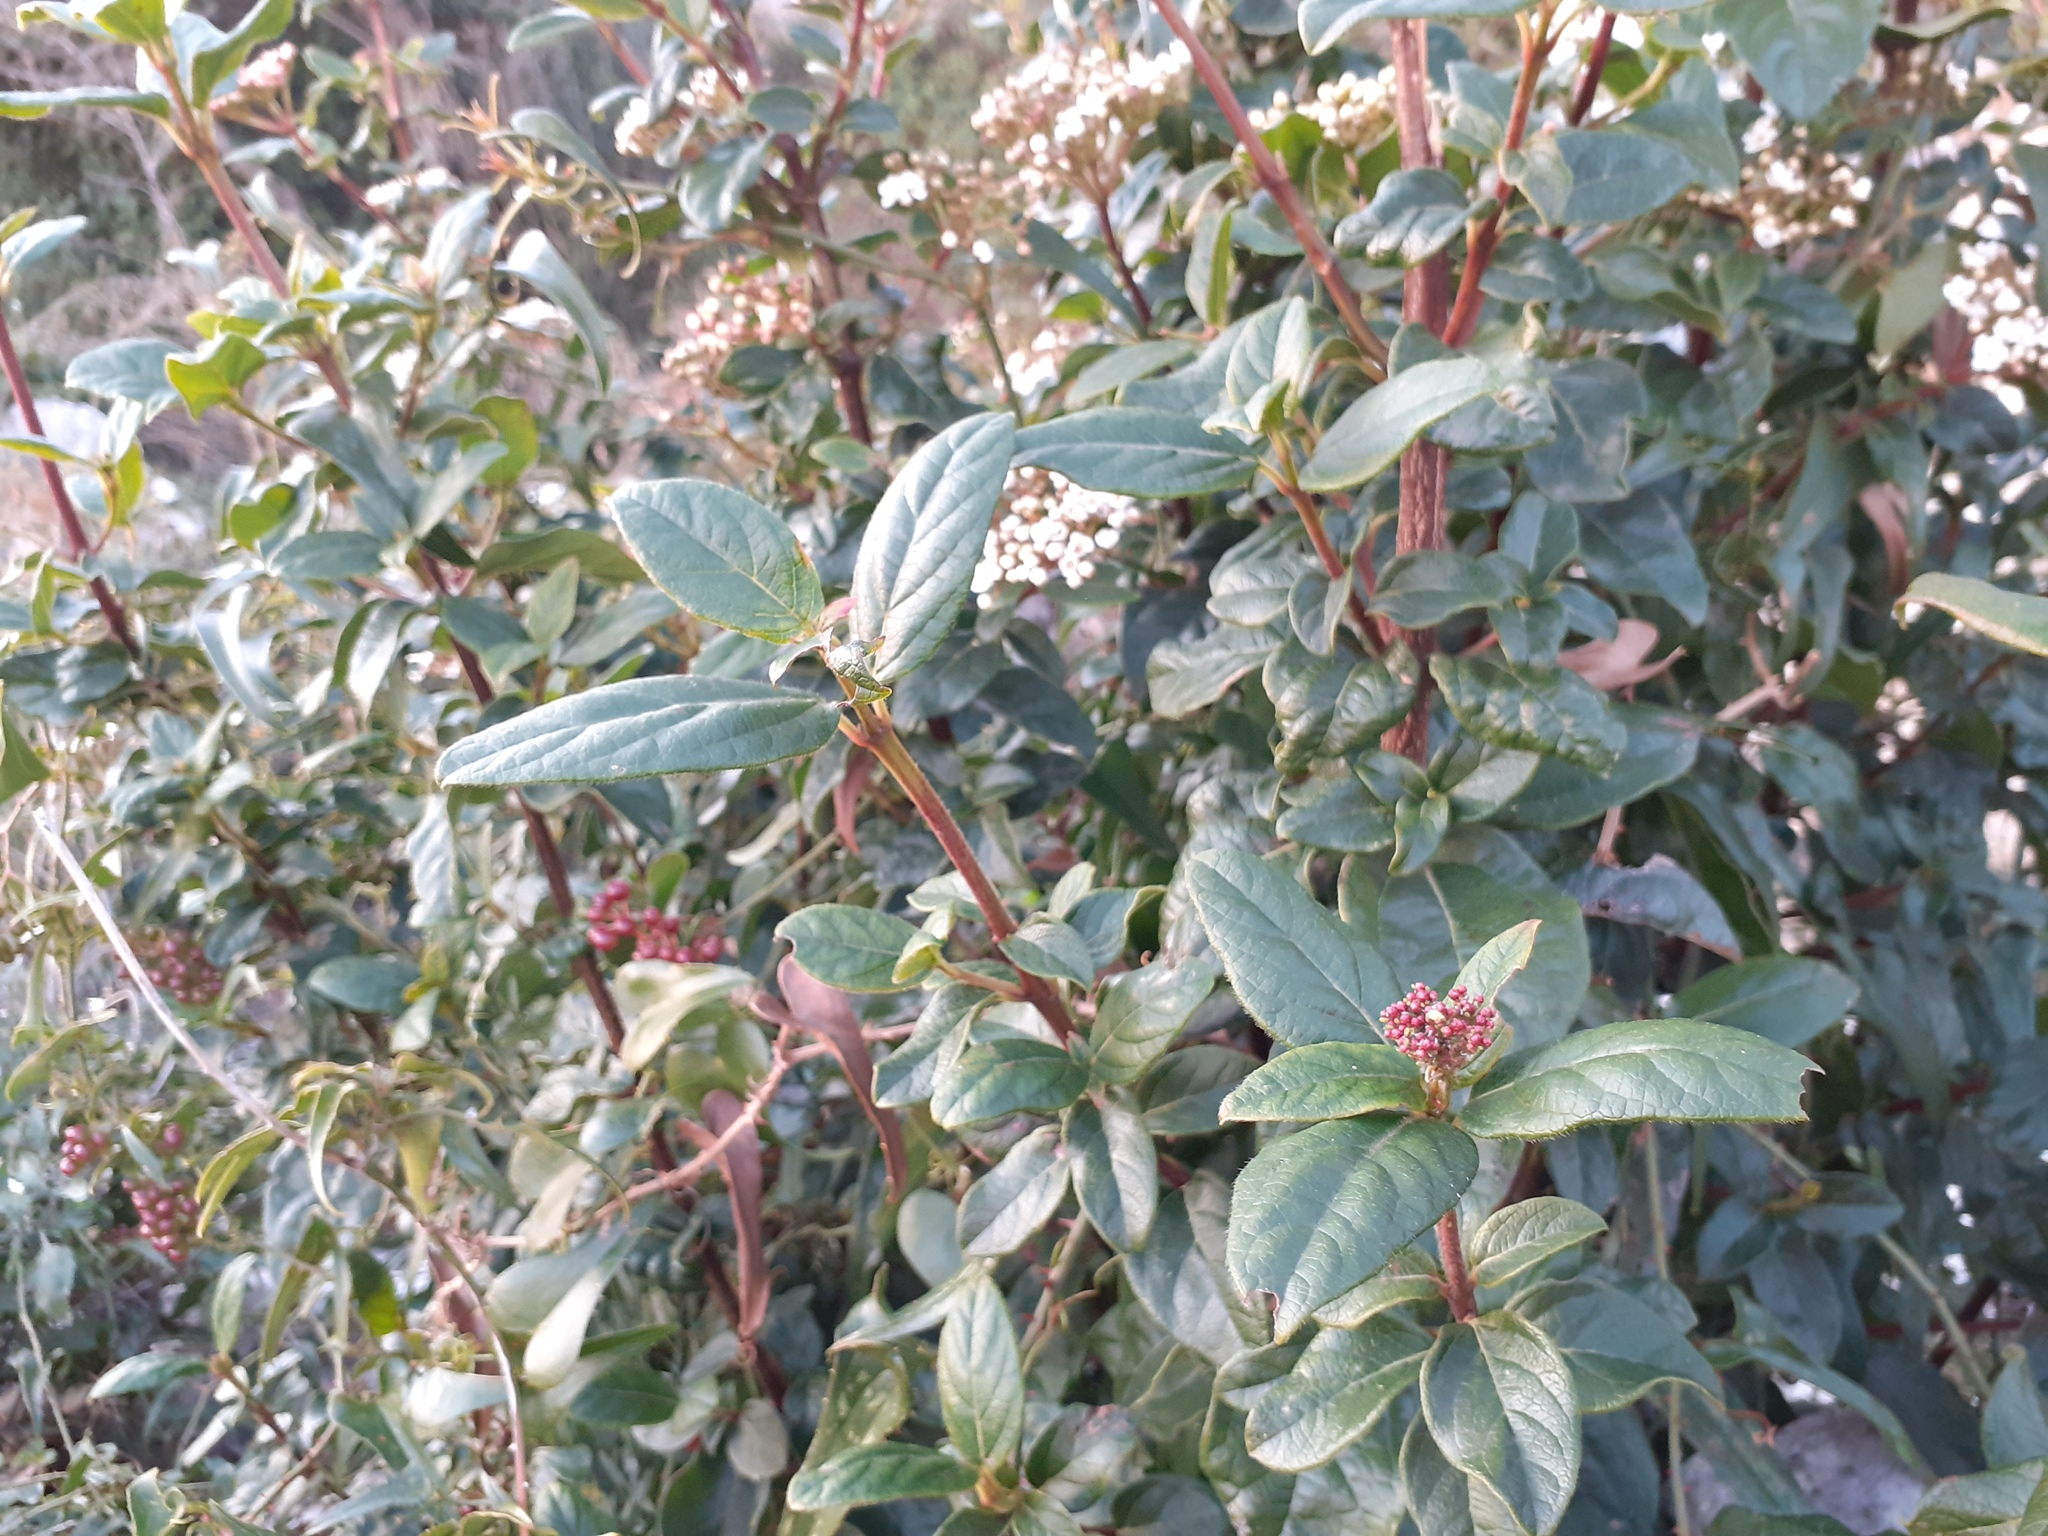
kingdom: Plantae
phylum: Tracheophyta
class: Magnoliopsida
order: Dipsacales
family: Viburnaceae
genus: Viburnum
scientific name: Viburnum tinus
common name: Laurustinus
